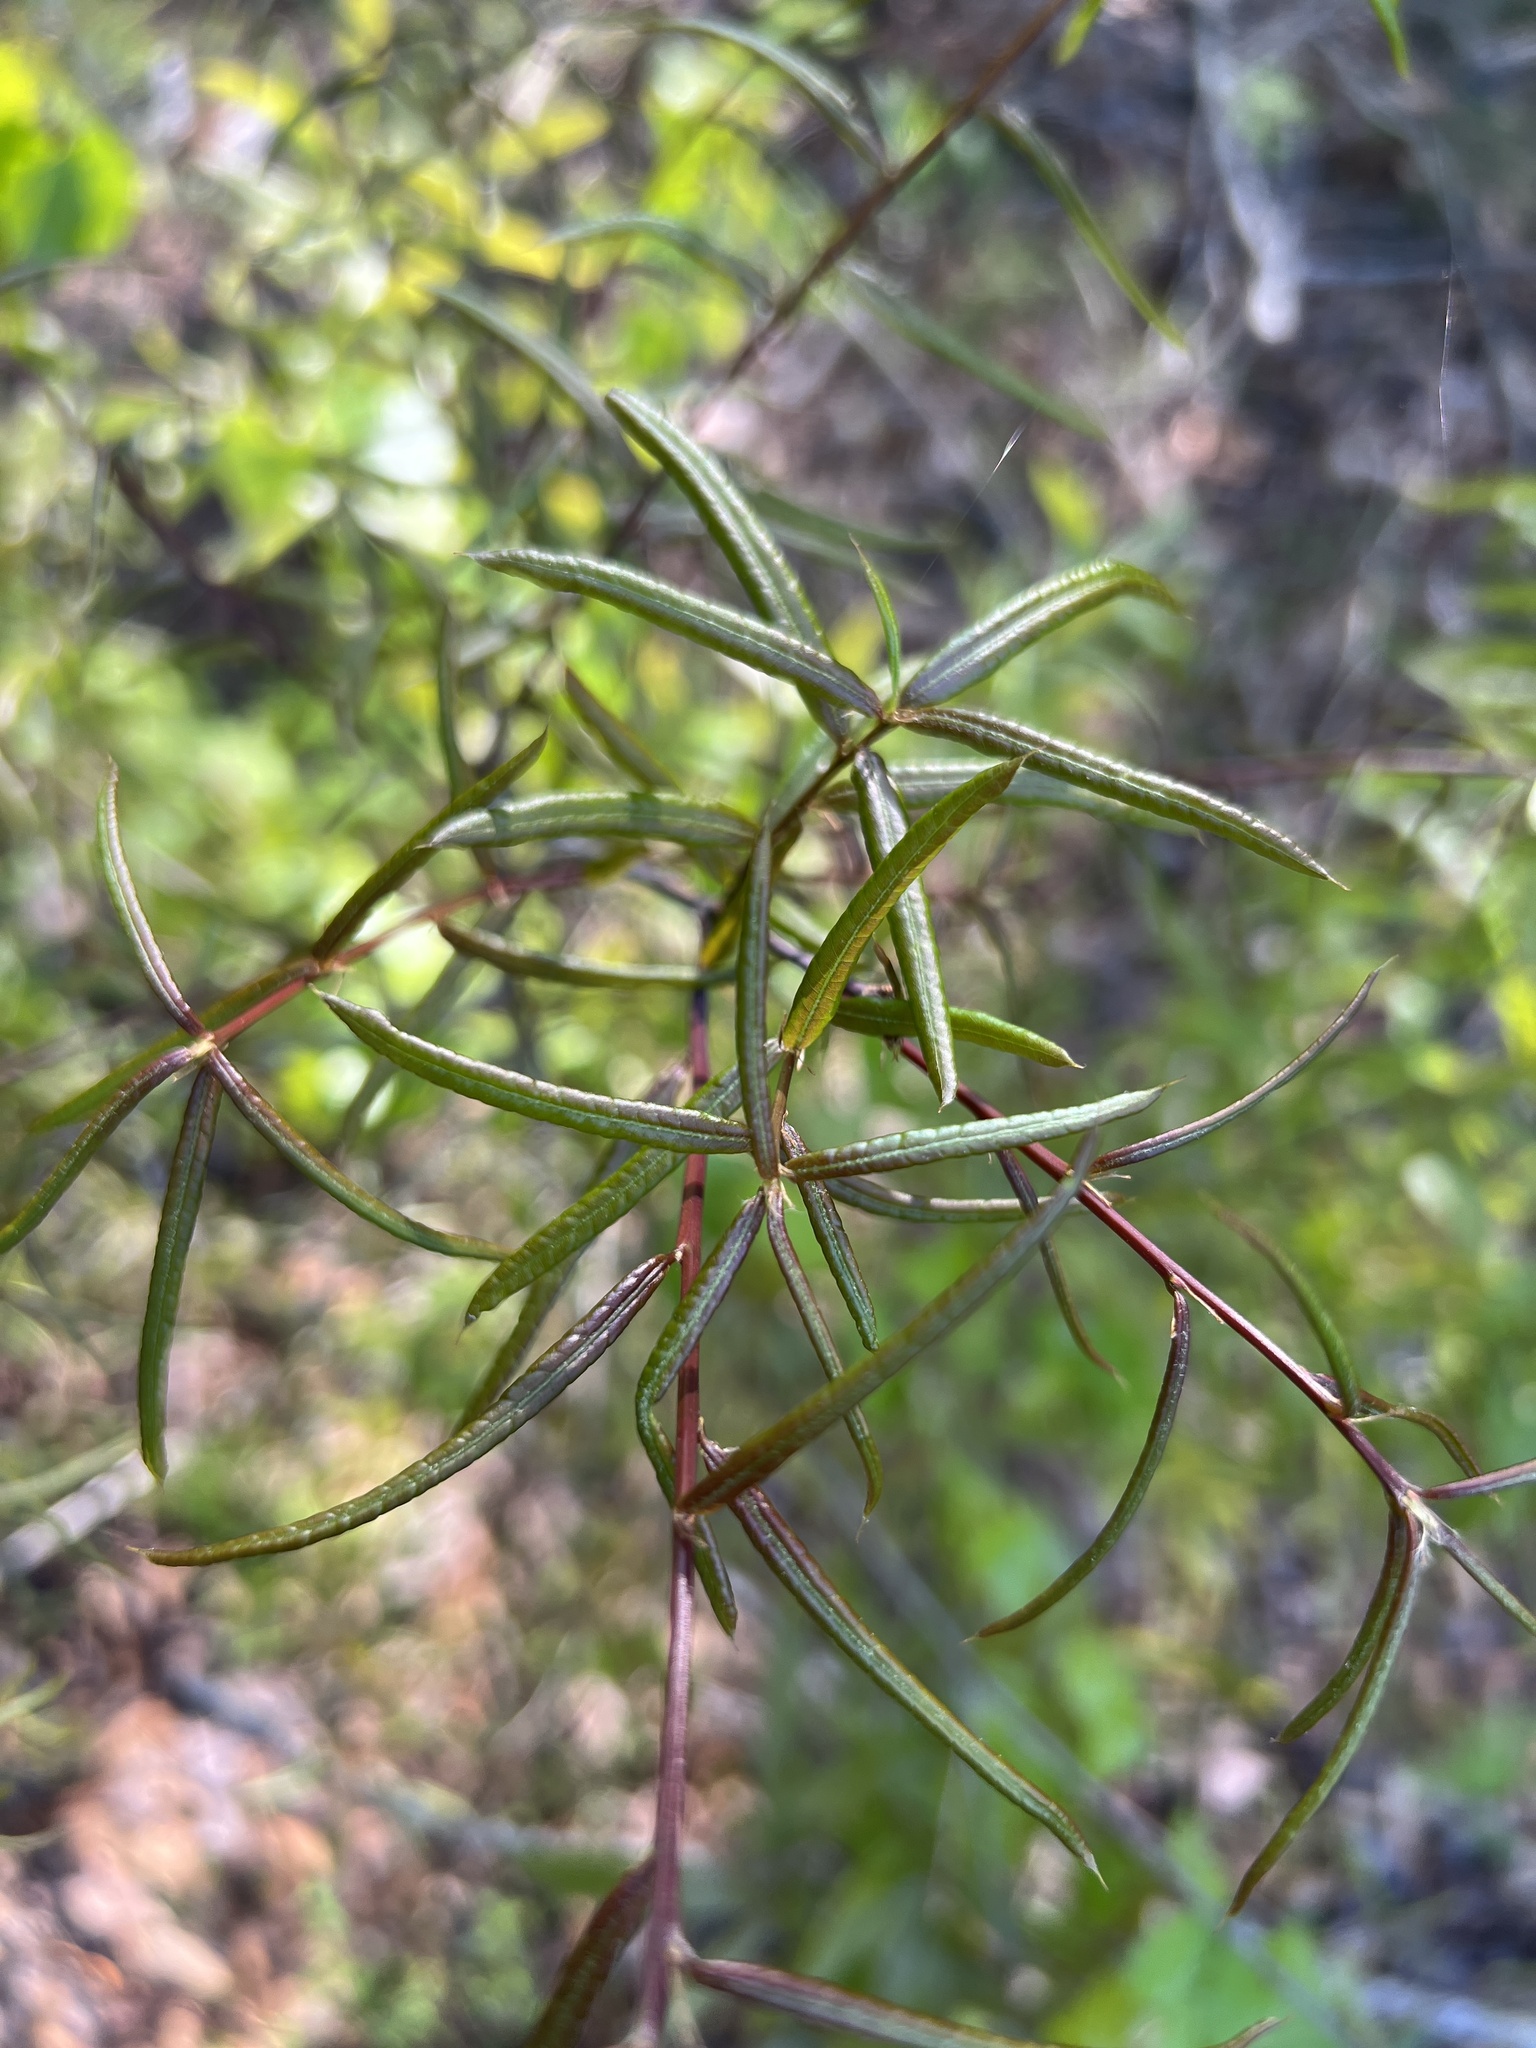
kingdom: Plantae
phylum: Tracheophyta
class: Magnoliopsida
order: Fagales
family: Fagaceae
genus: Quercus
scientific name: Quercus phellos
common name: Willow oak
